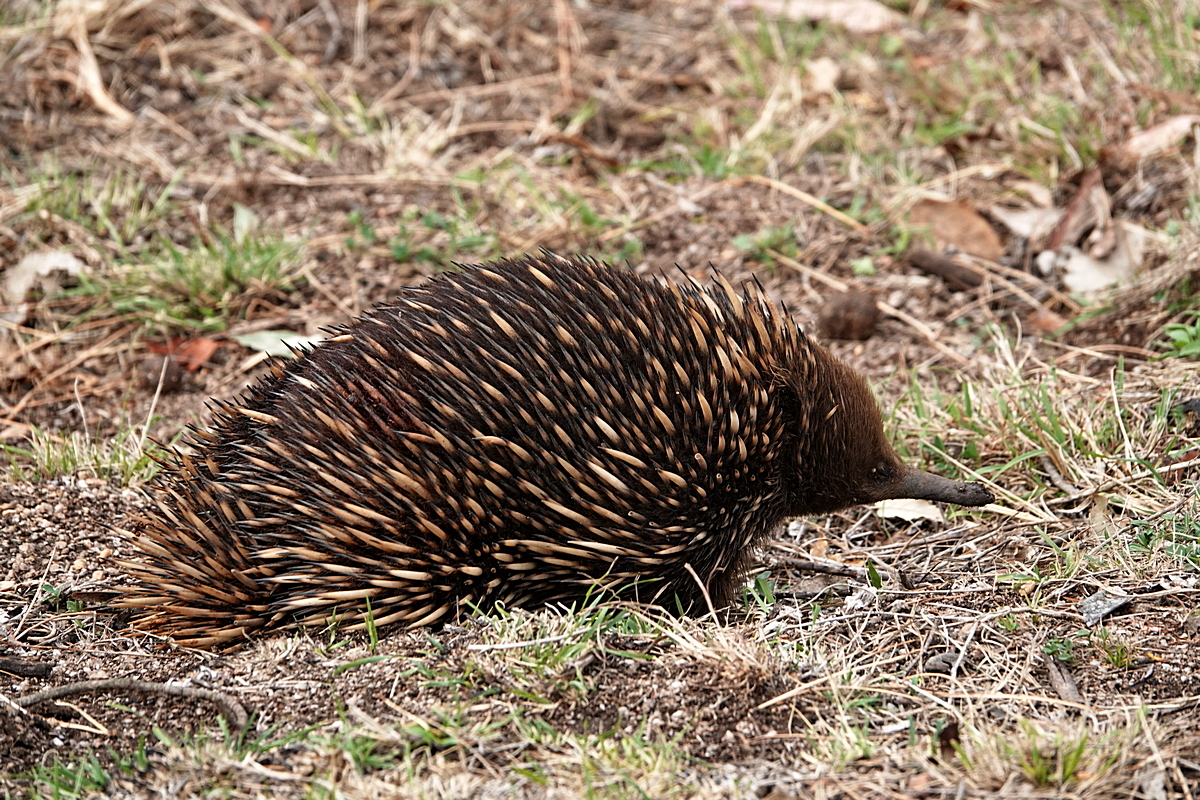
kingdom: Animalia
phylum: Chordata
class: Mammalia
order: Monotremata
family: Tachyglossidae
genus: Tachyglossus
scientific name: Tachyglossus aculeatus
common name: Short-beaked echidna
